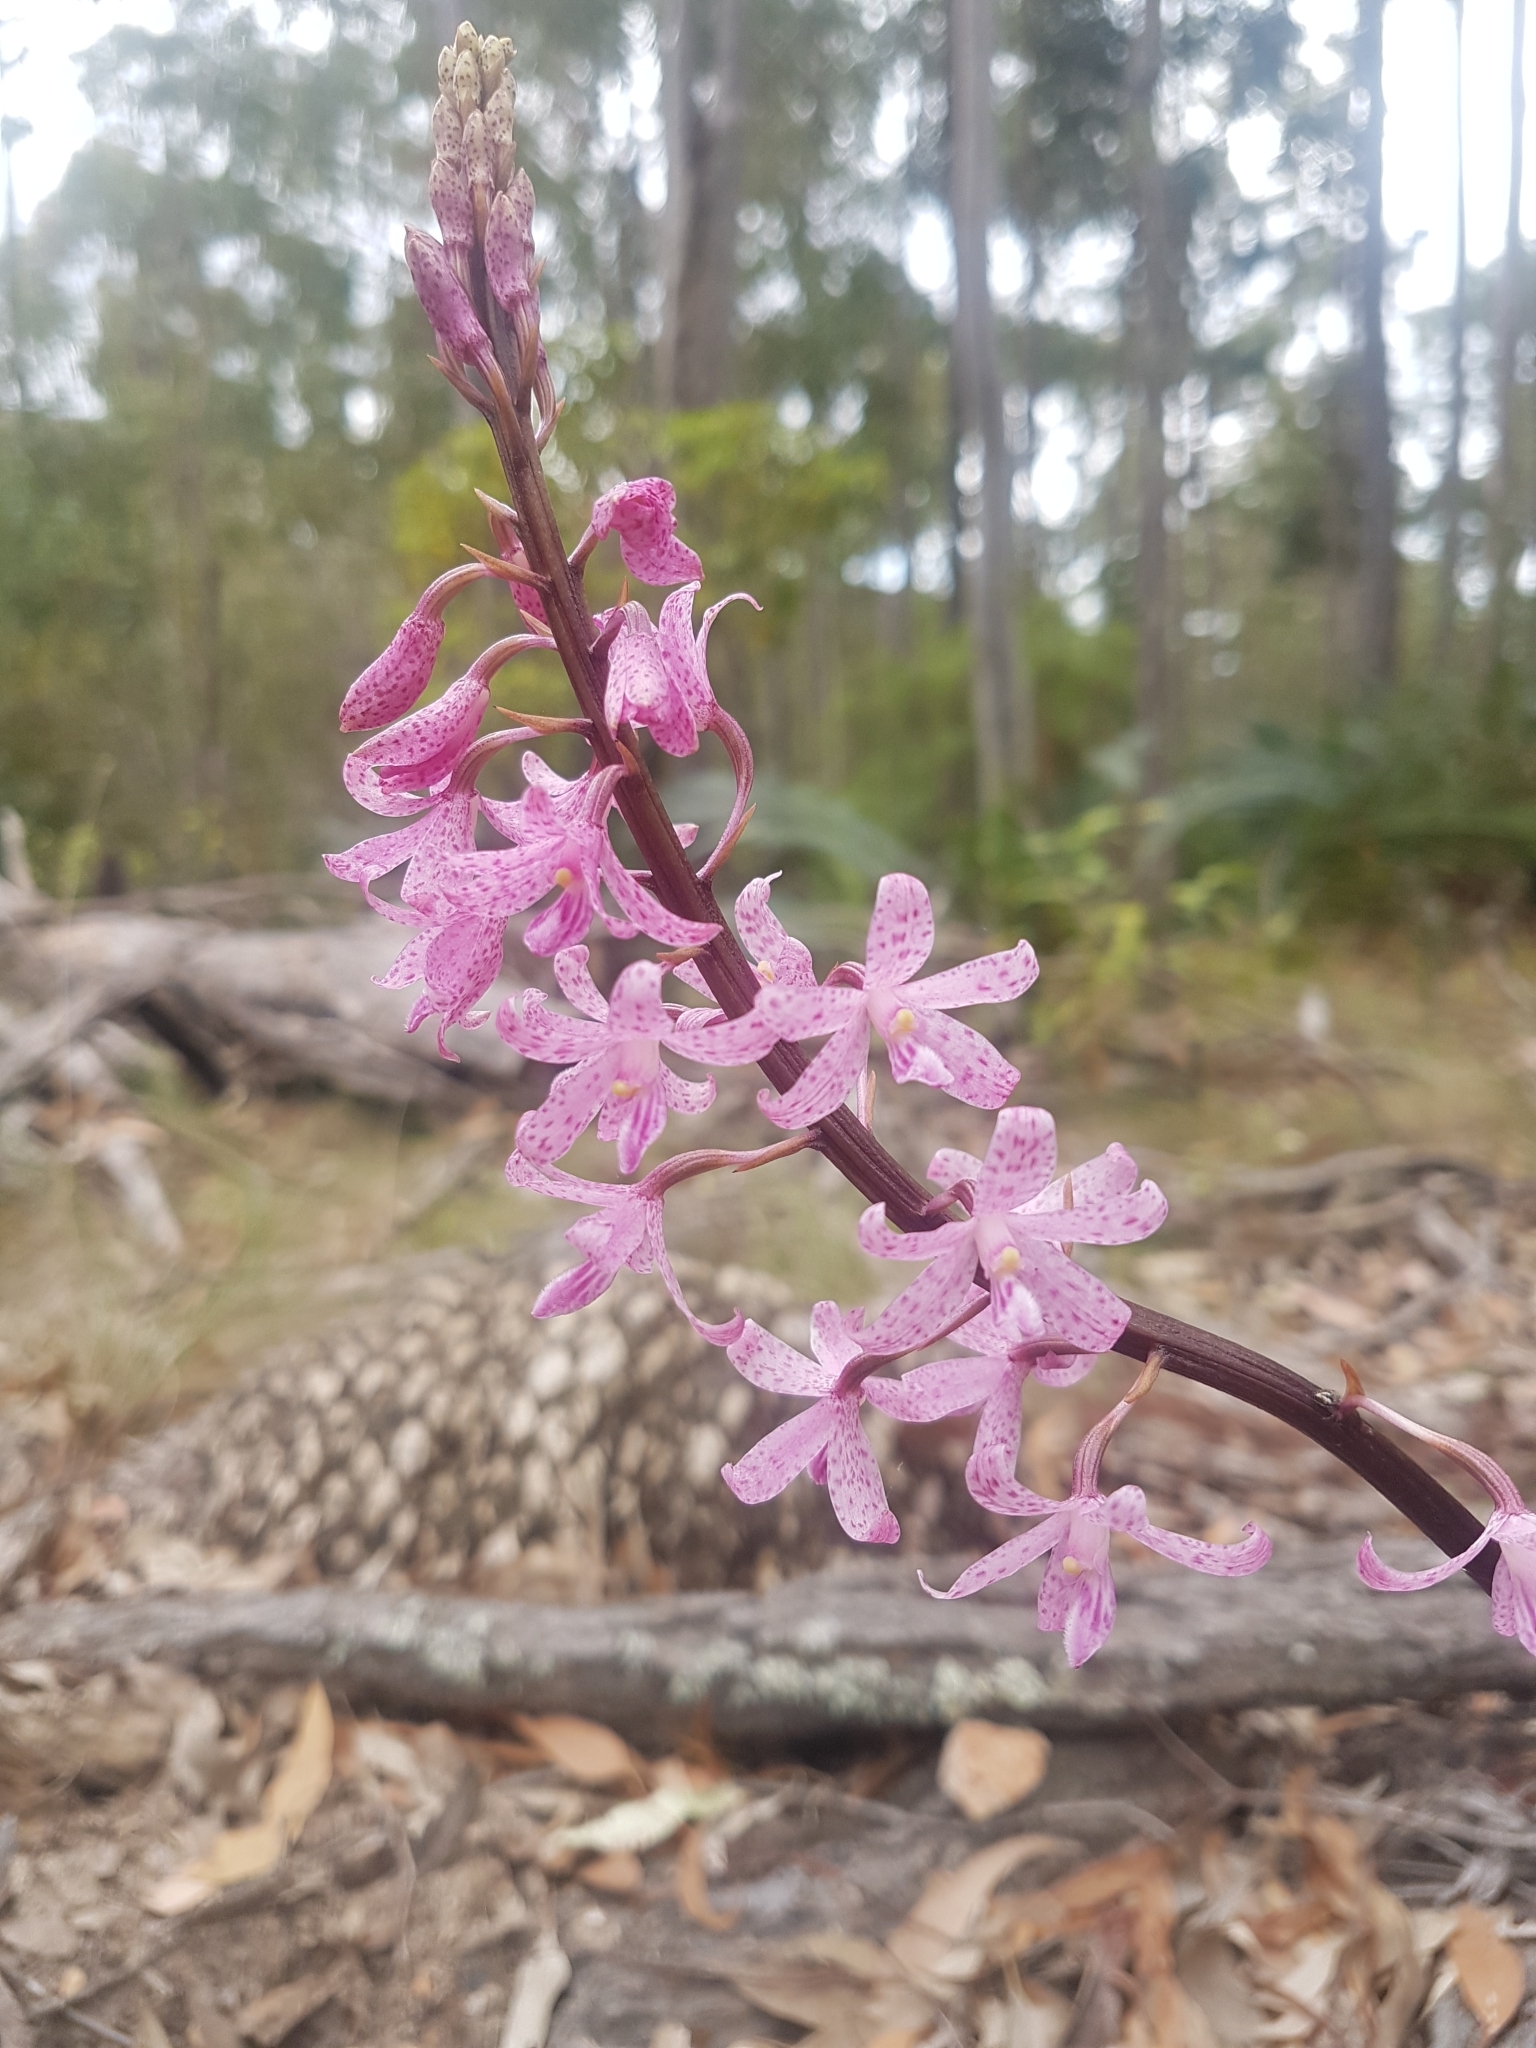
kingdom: Plantae
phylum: Tracheophyta
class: Liliopsida
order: Asparagales
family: Orchidaceae
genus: Dipodium
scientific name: Dipodium roseum
